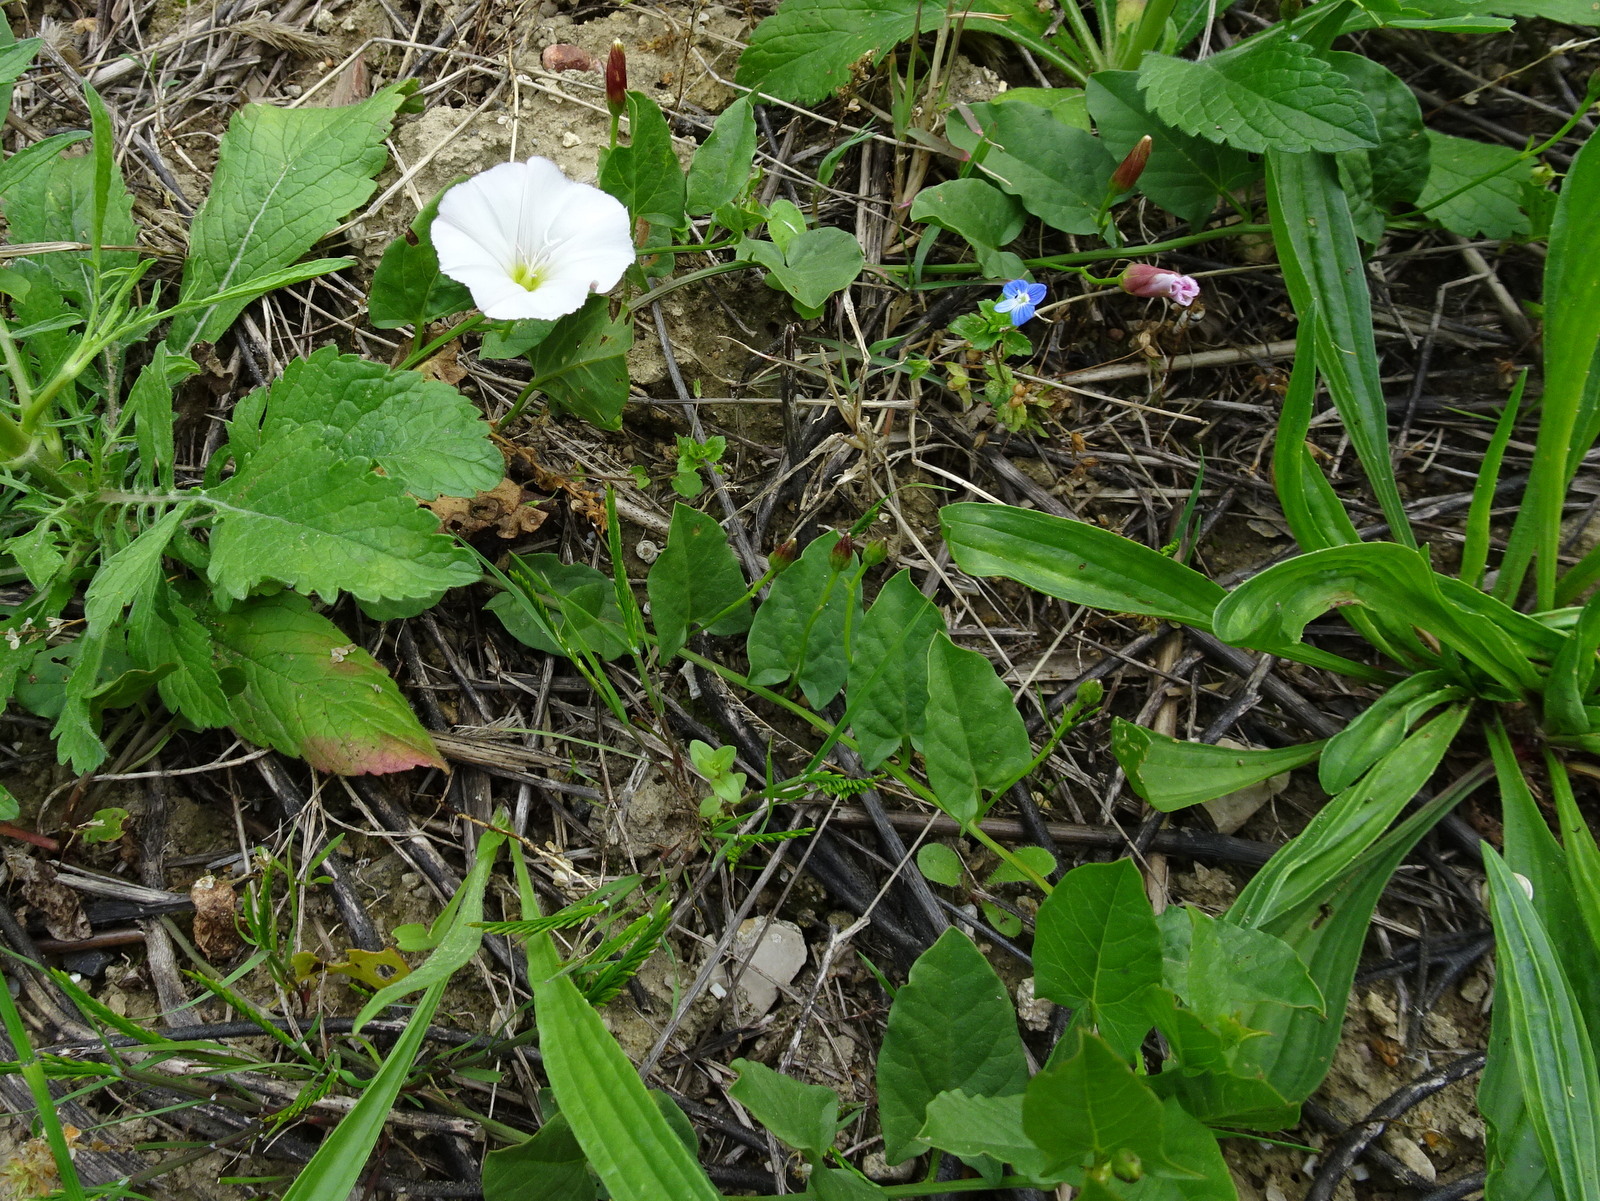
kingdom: Plantae
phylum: Tracheophyta
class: Magnoliopsida
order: Solanales
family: Convolvulaceae
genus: Convolvulus
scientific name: Convolvulus arvensis
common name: Field bindweed
